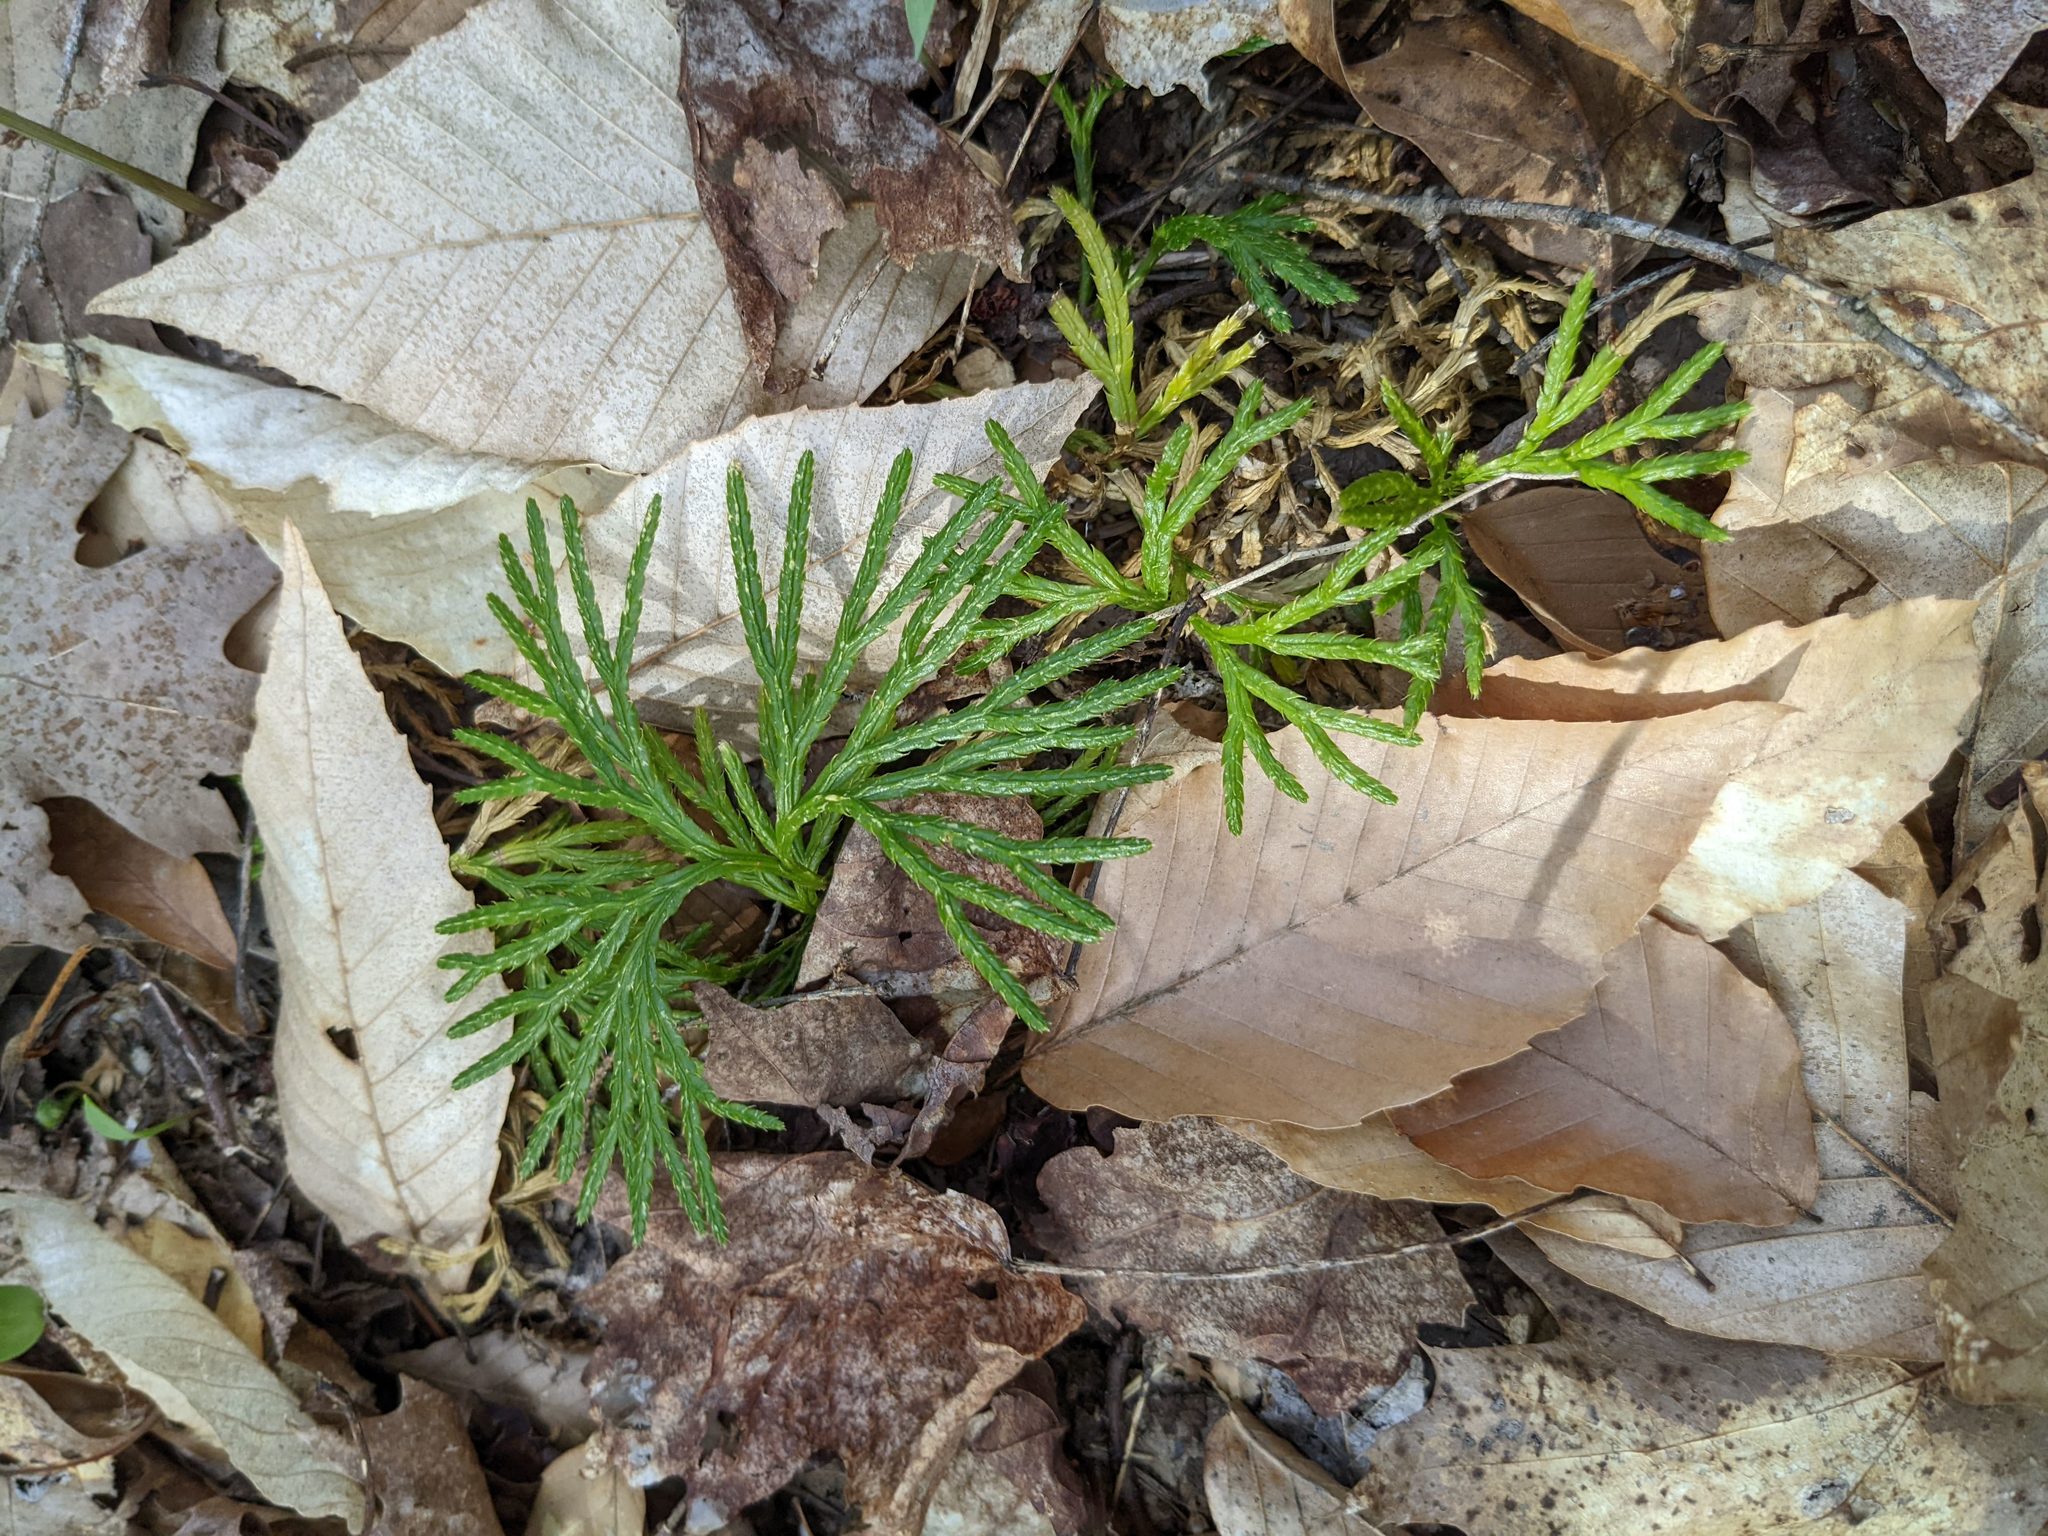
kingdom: Plantae
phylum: Tracheophyta
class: Lycopodiopsida
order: Lycopodiales
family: Lycopodiaceae
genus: Diphasiastrum
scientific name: Diphasiastrum digitatum
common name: Southern running-pine
